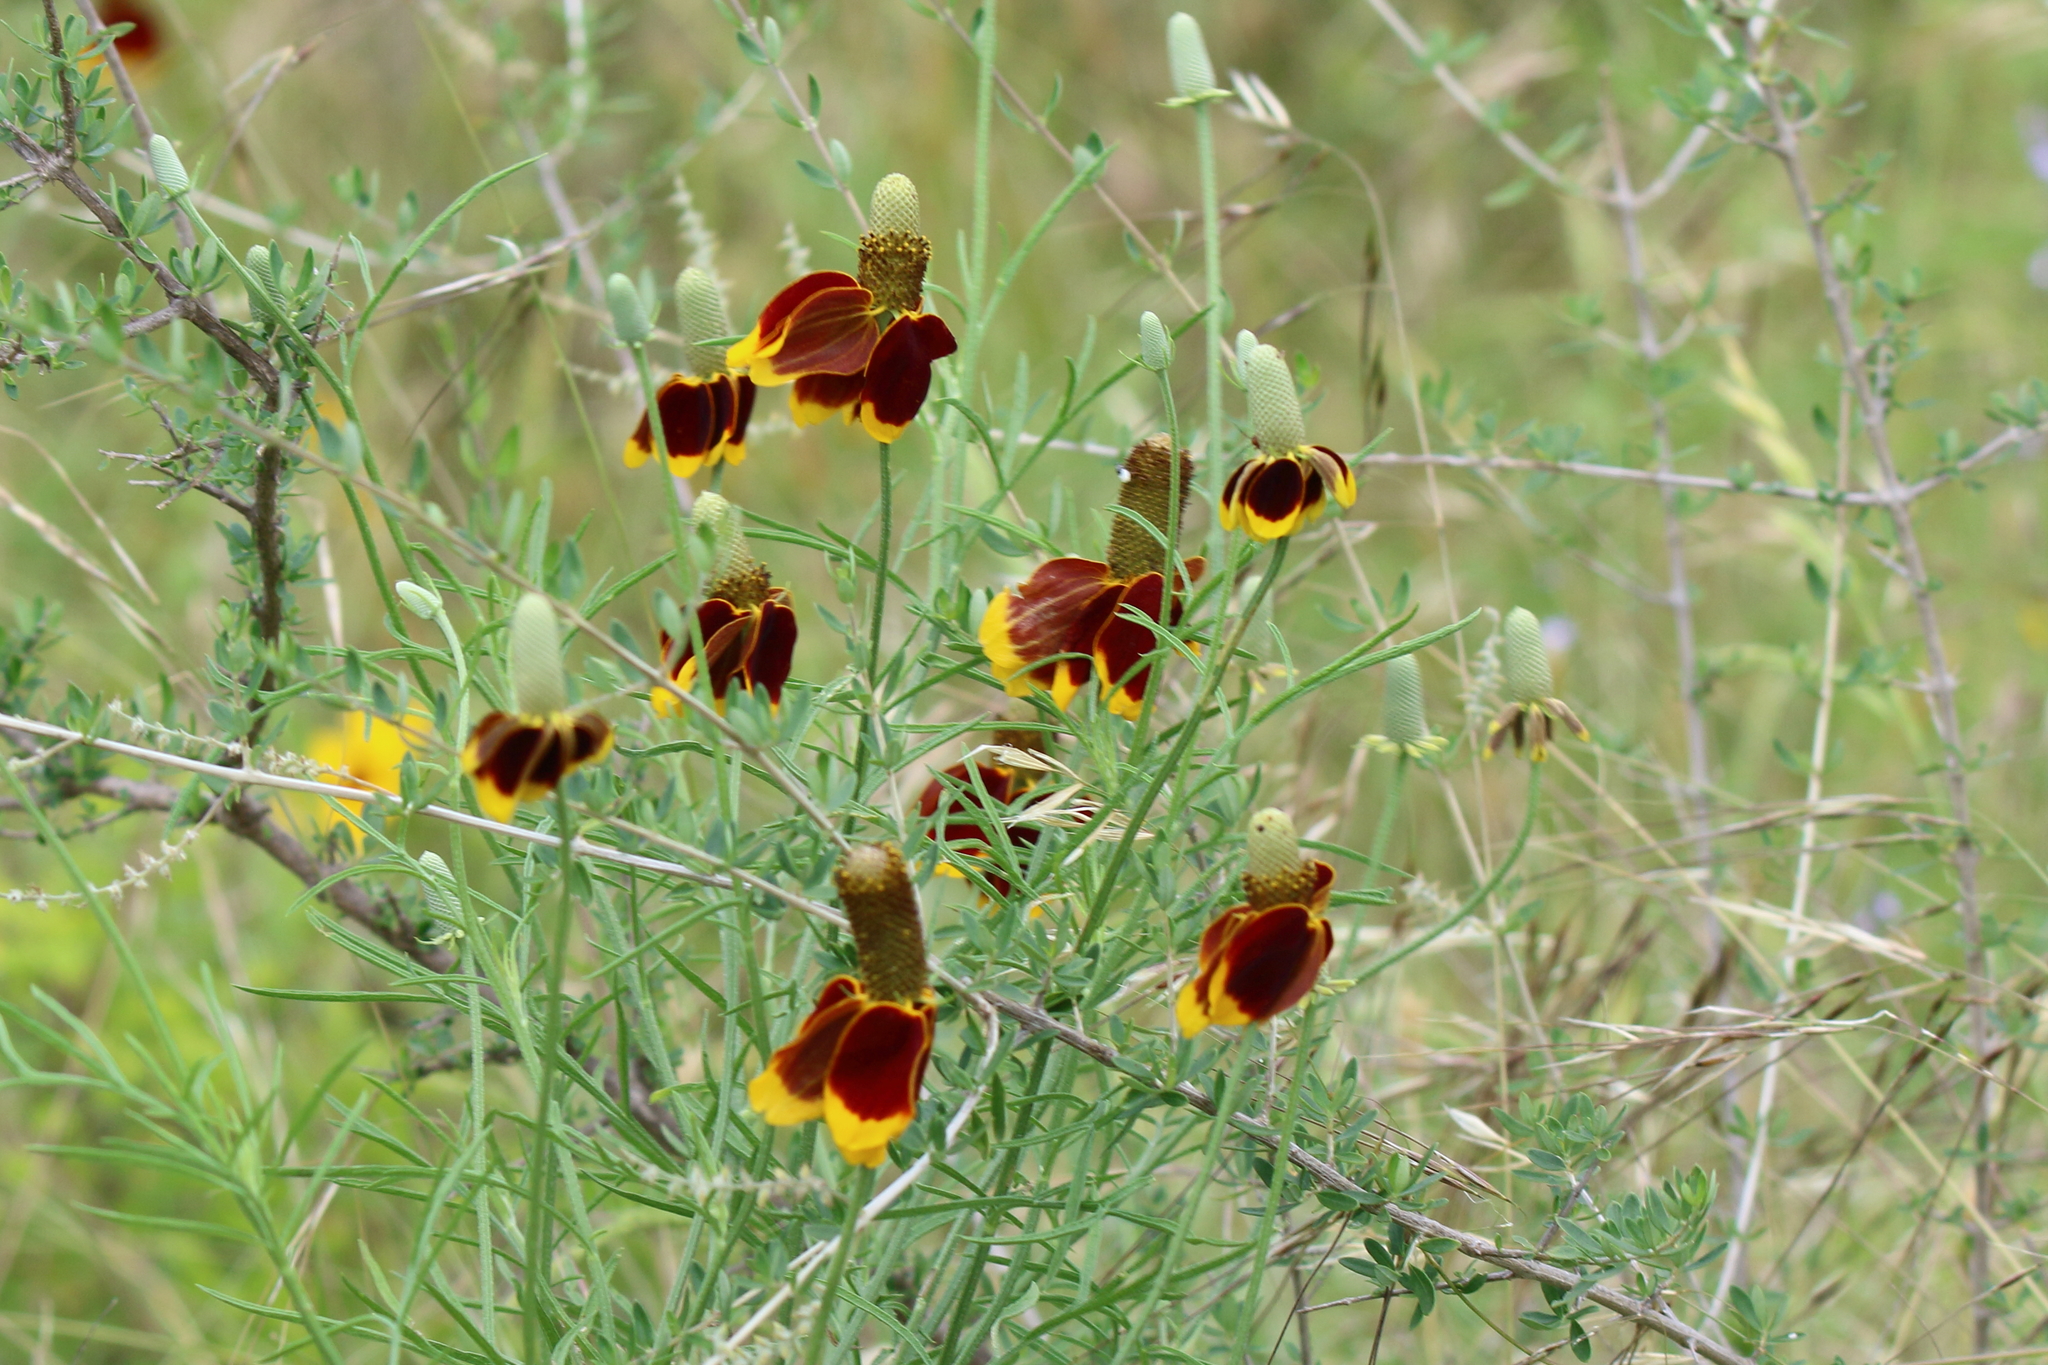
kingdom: Plantae
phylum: Tracheophyta
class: Magnoliopsida
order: Asterales
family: Asteraceae
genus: Ratibida
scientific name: Ratibida columnifera
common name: Prairie coneflower
